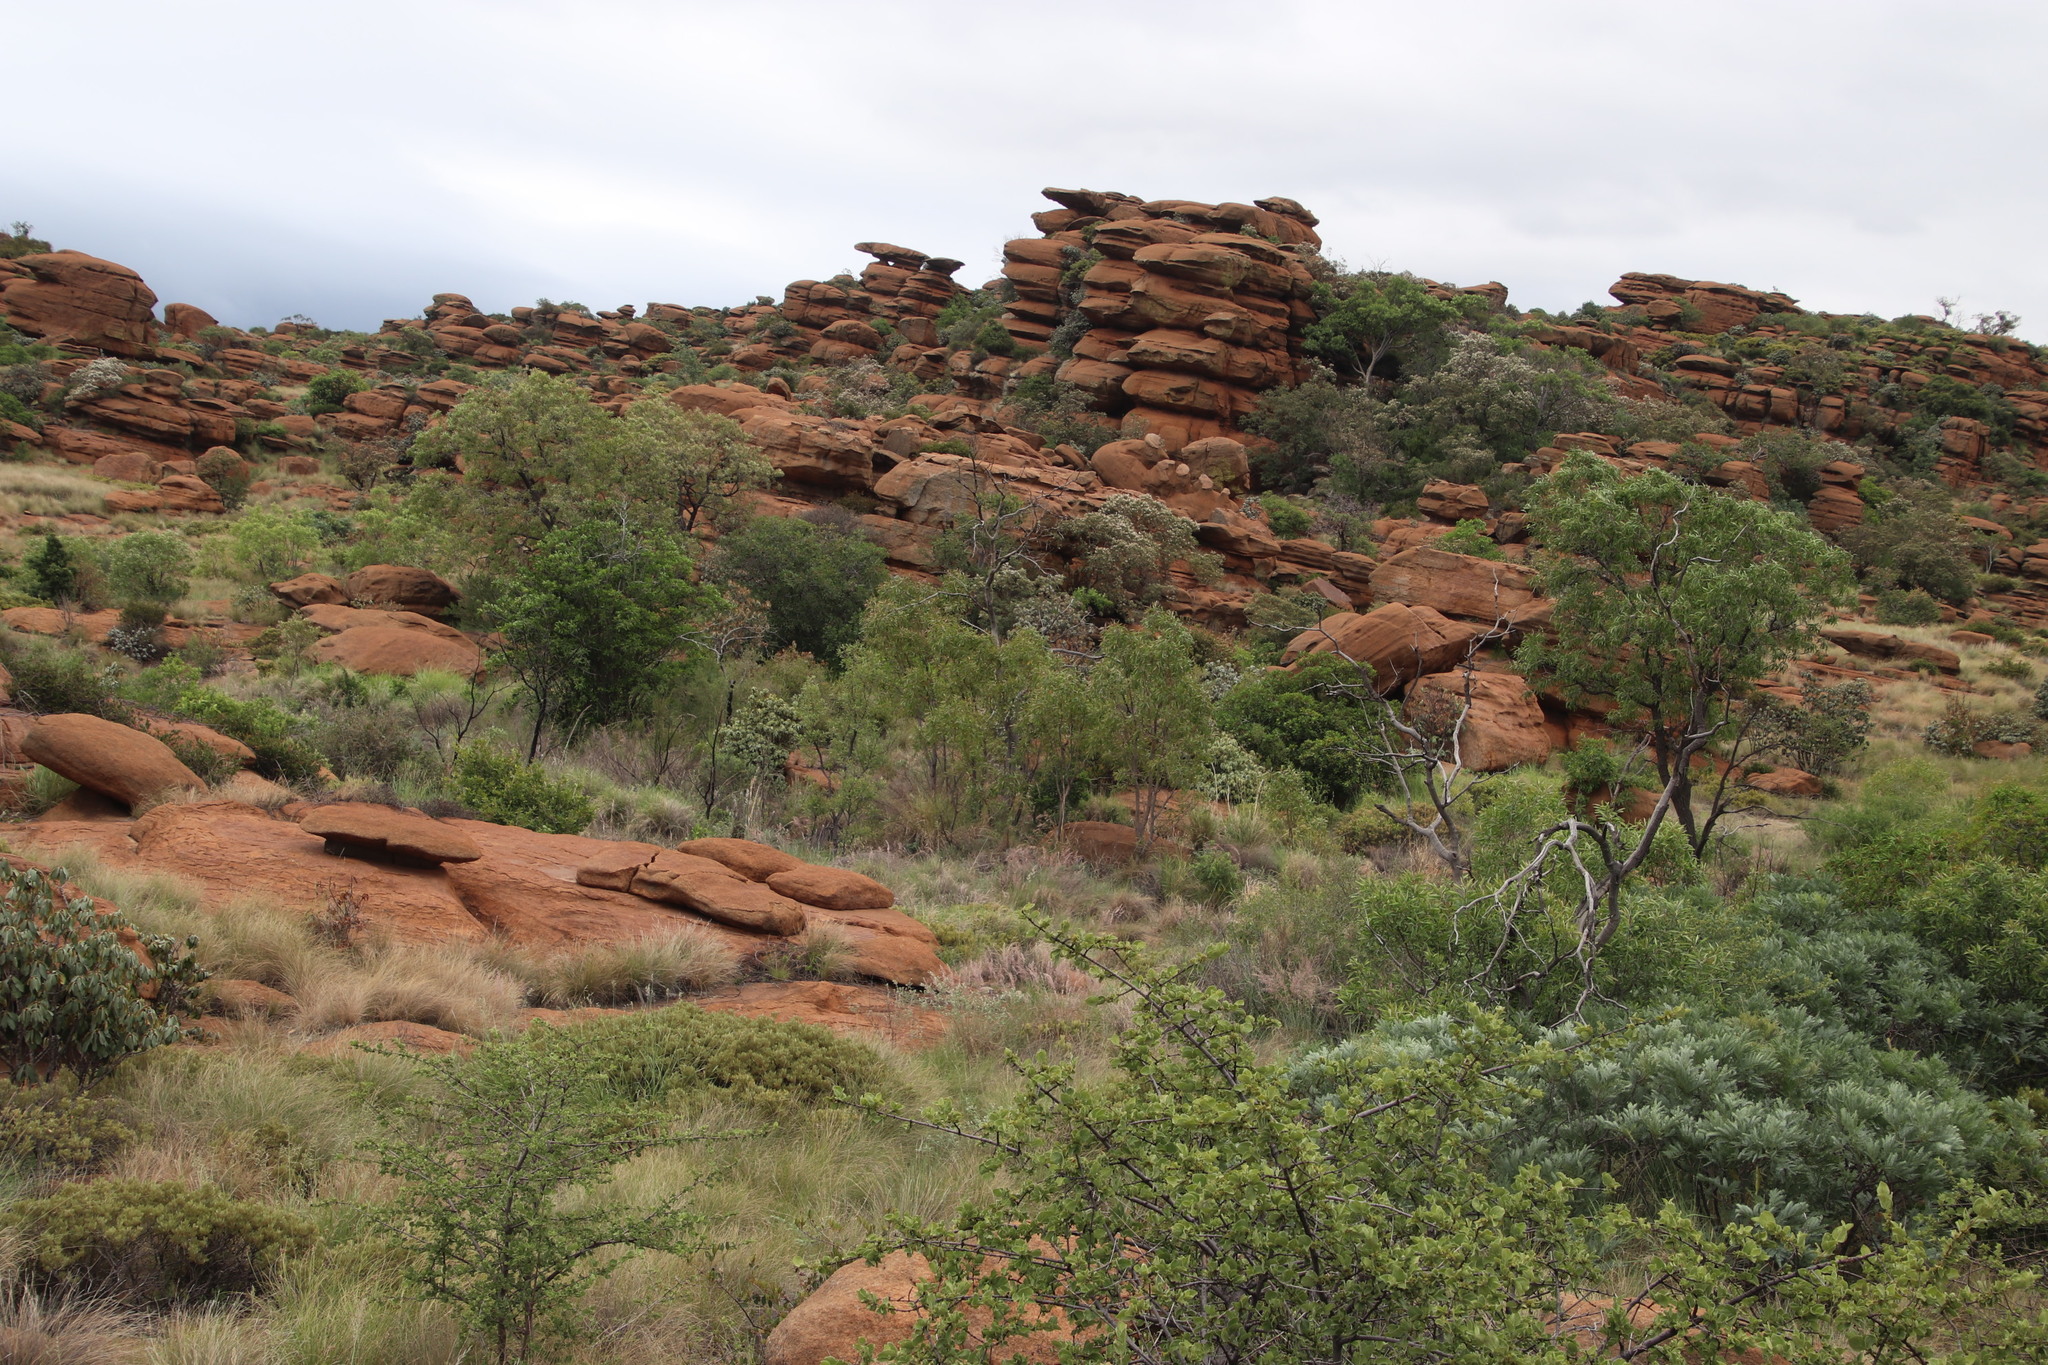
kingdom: Plantae
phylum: Tracheophyta
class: Magnoliopsida
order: Proteales
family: Proteaceae
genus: Faurea
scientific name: Faurea saligna
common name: African bean
